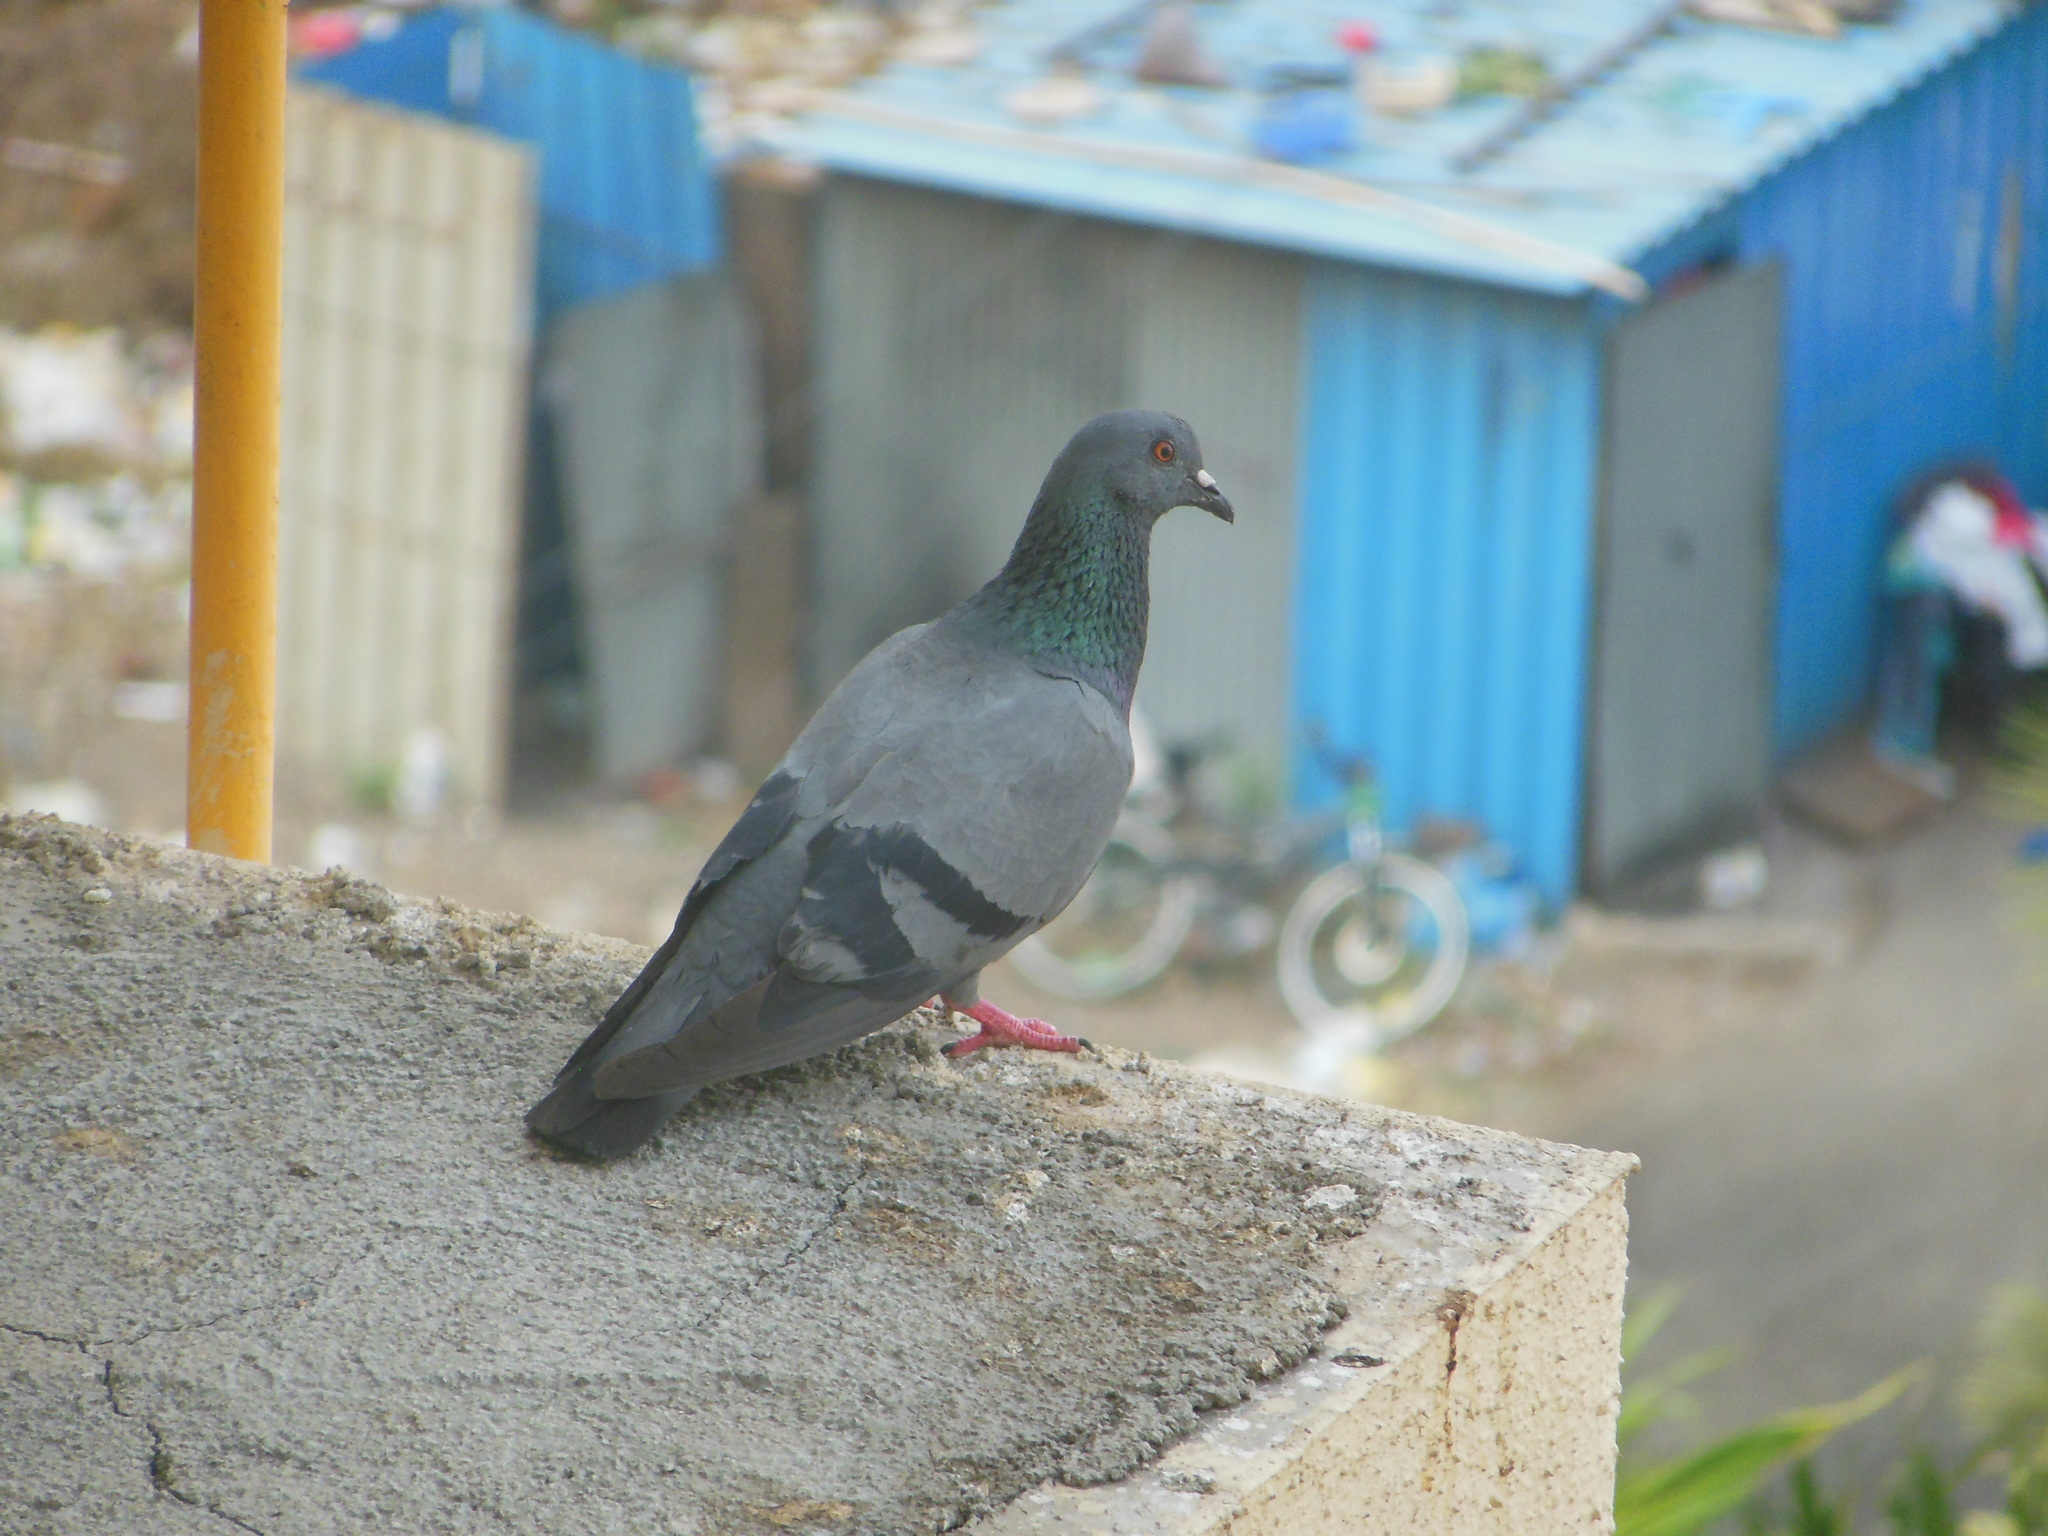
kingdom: Animalia
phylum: Chordata
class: Aves
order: Columbiformes
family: Columbidae
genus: Columba
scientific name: Columba livia
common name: Rock pigeon
